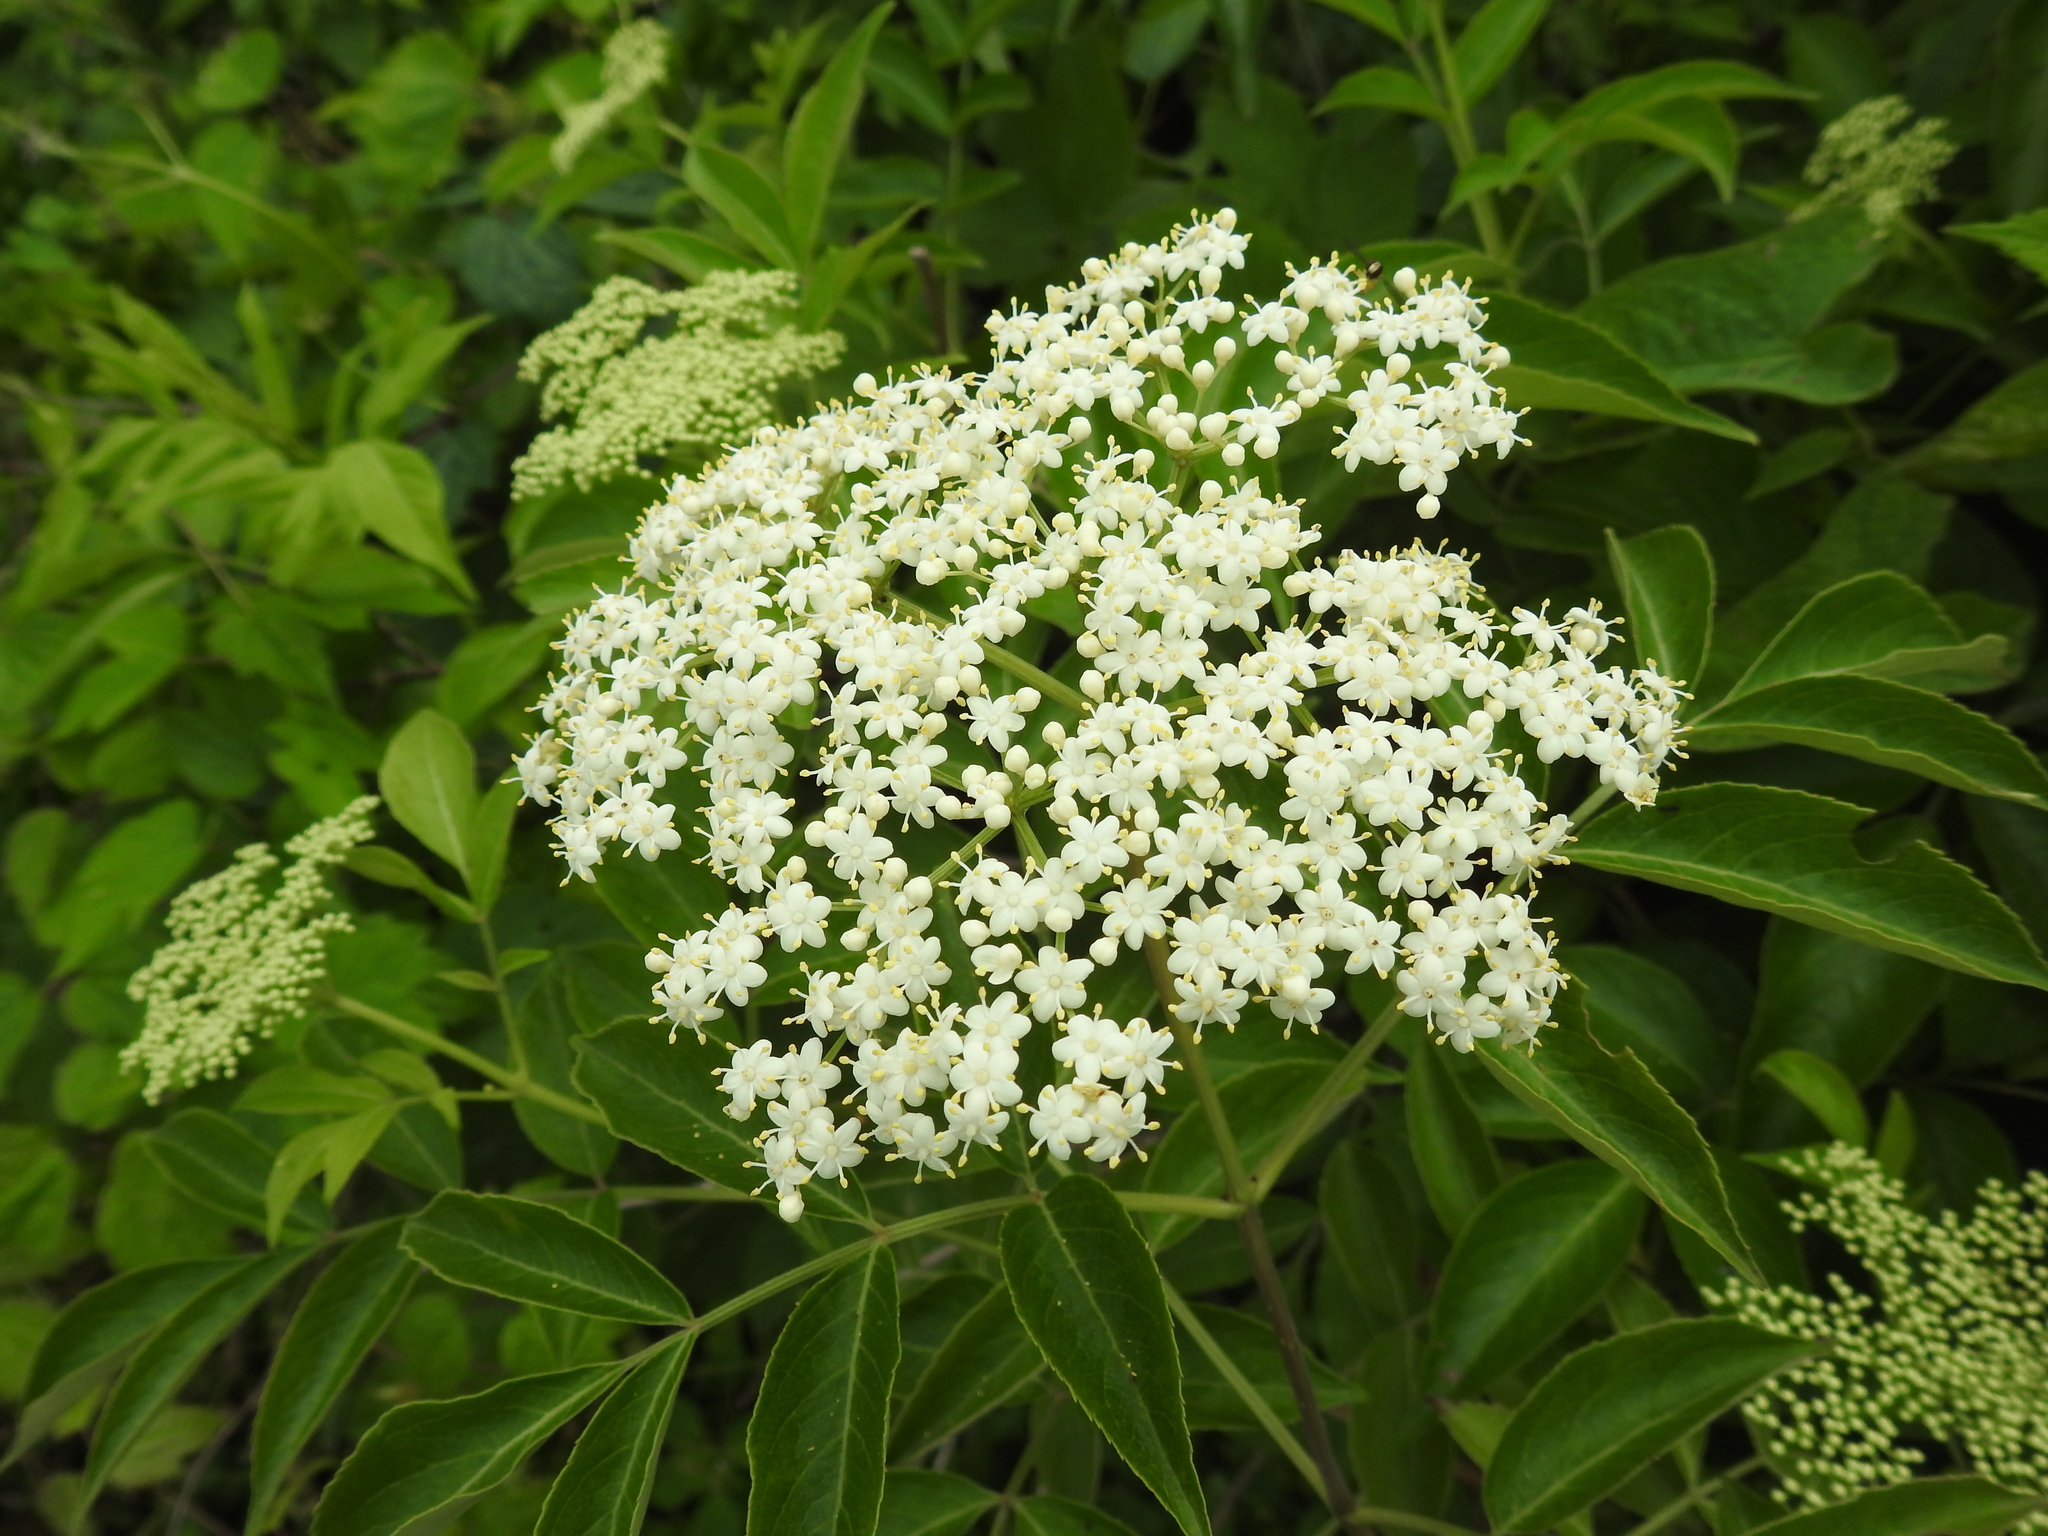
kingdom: Plantae
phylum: Tracheophyta
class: Magnoliopsida
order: Dipsacales
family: Viburnaceae
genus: Sambucus
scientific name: Sambucus canadensis
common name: American elder
